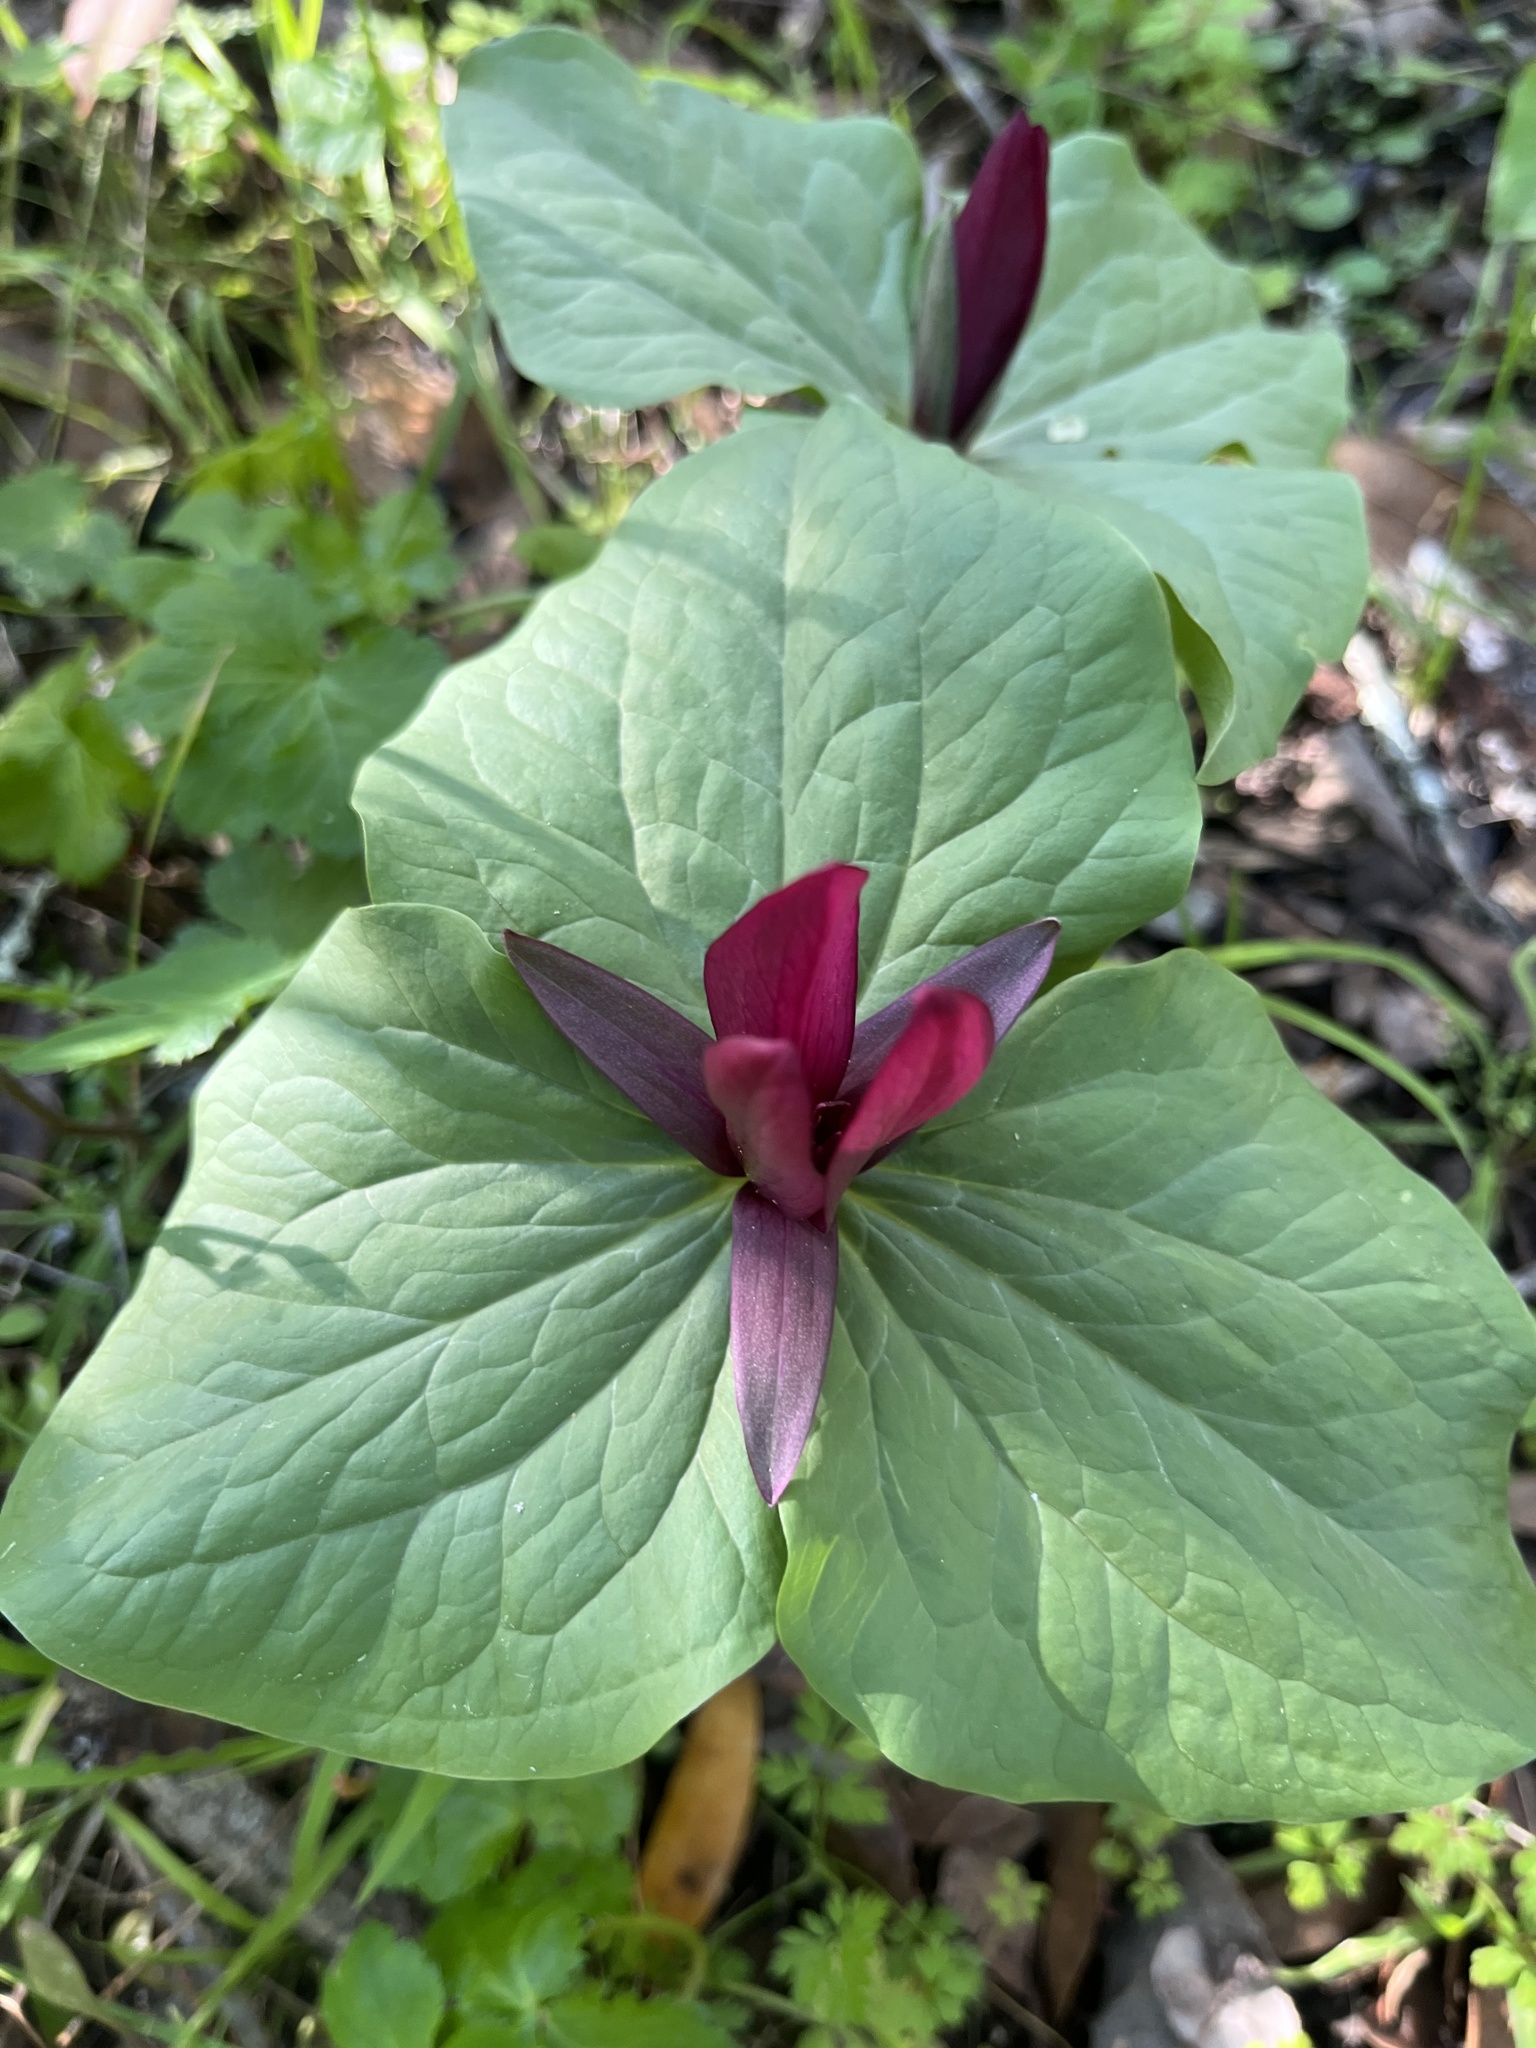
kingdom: Plantae
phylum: Tracheophyta
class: Liliopsida
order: Liliales
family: Melanthiaceae
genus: Trillium
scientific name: Trillium chloropetalum
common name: Giant trillium
